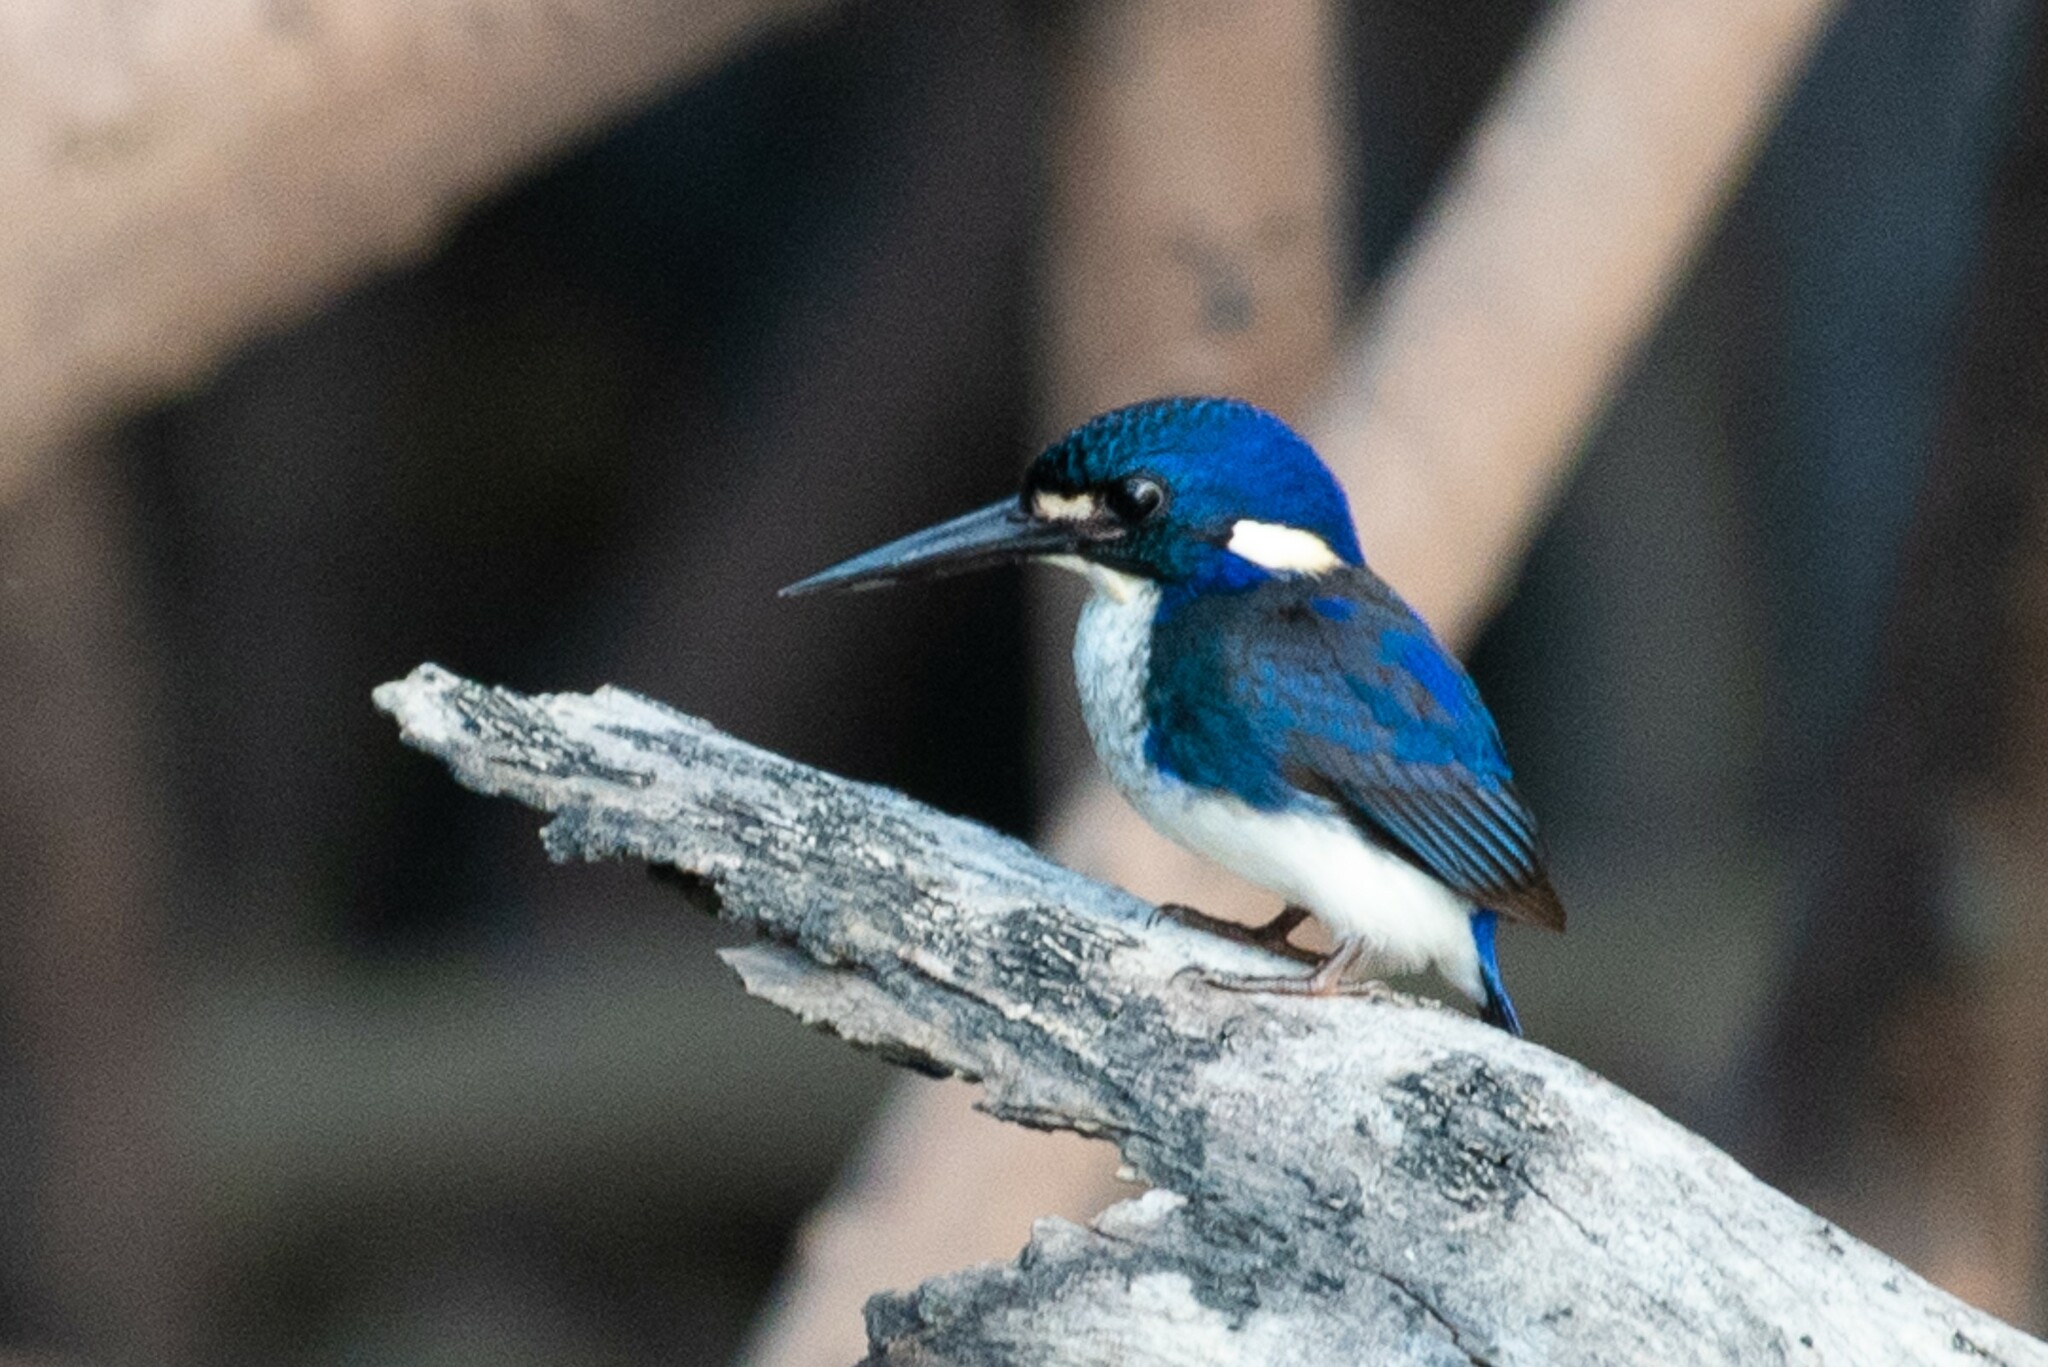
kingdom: Animalia
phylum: Chordata
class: Aves
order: Coraciiformes
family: Alcedinidae
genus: Ceyx
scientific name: Ceyx pusillus
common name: Little kingfisher
